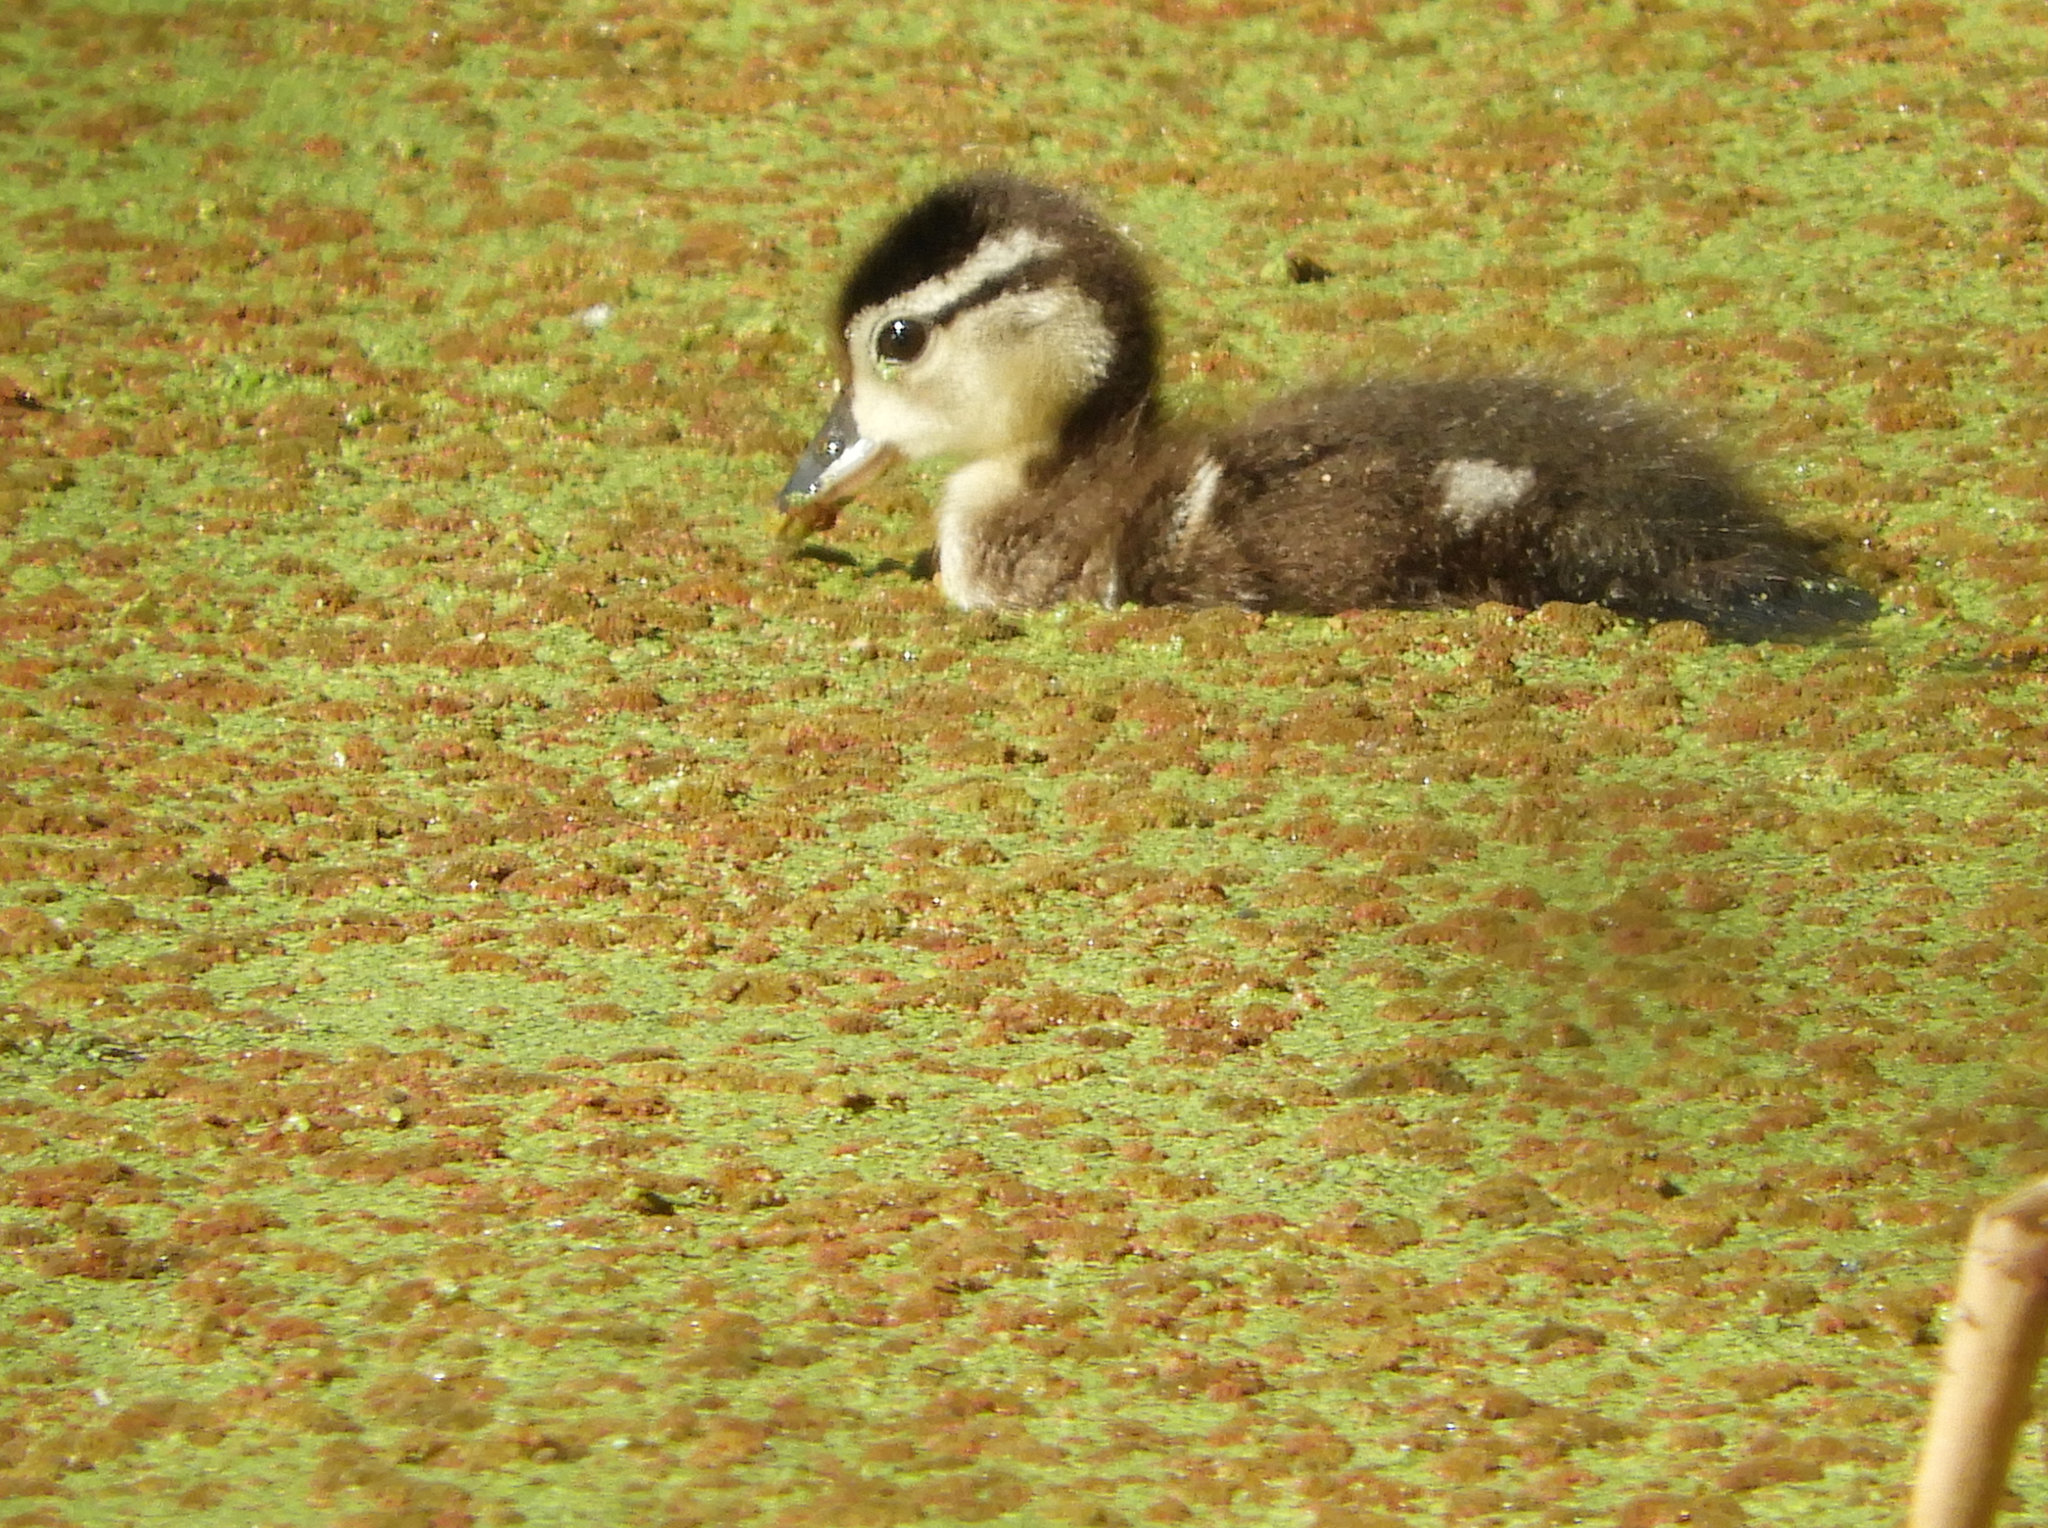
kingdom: Animalia
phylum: Chordata
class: Aves
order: Anseriformes
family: Anatidae
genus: Aix
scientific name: Aix sponsa
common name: Wood duck
